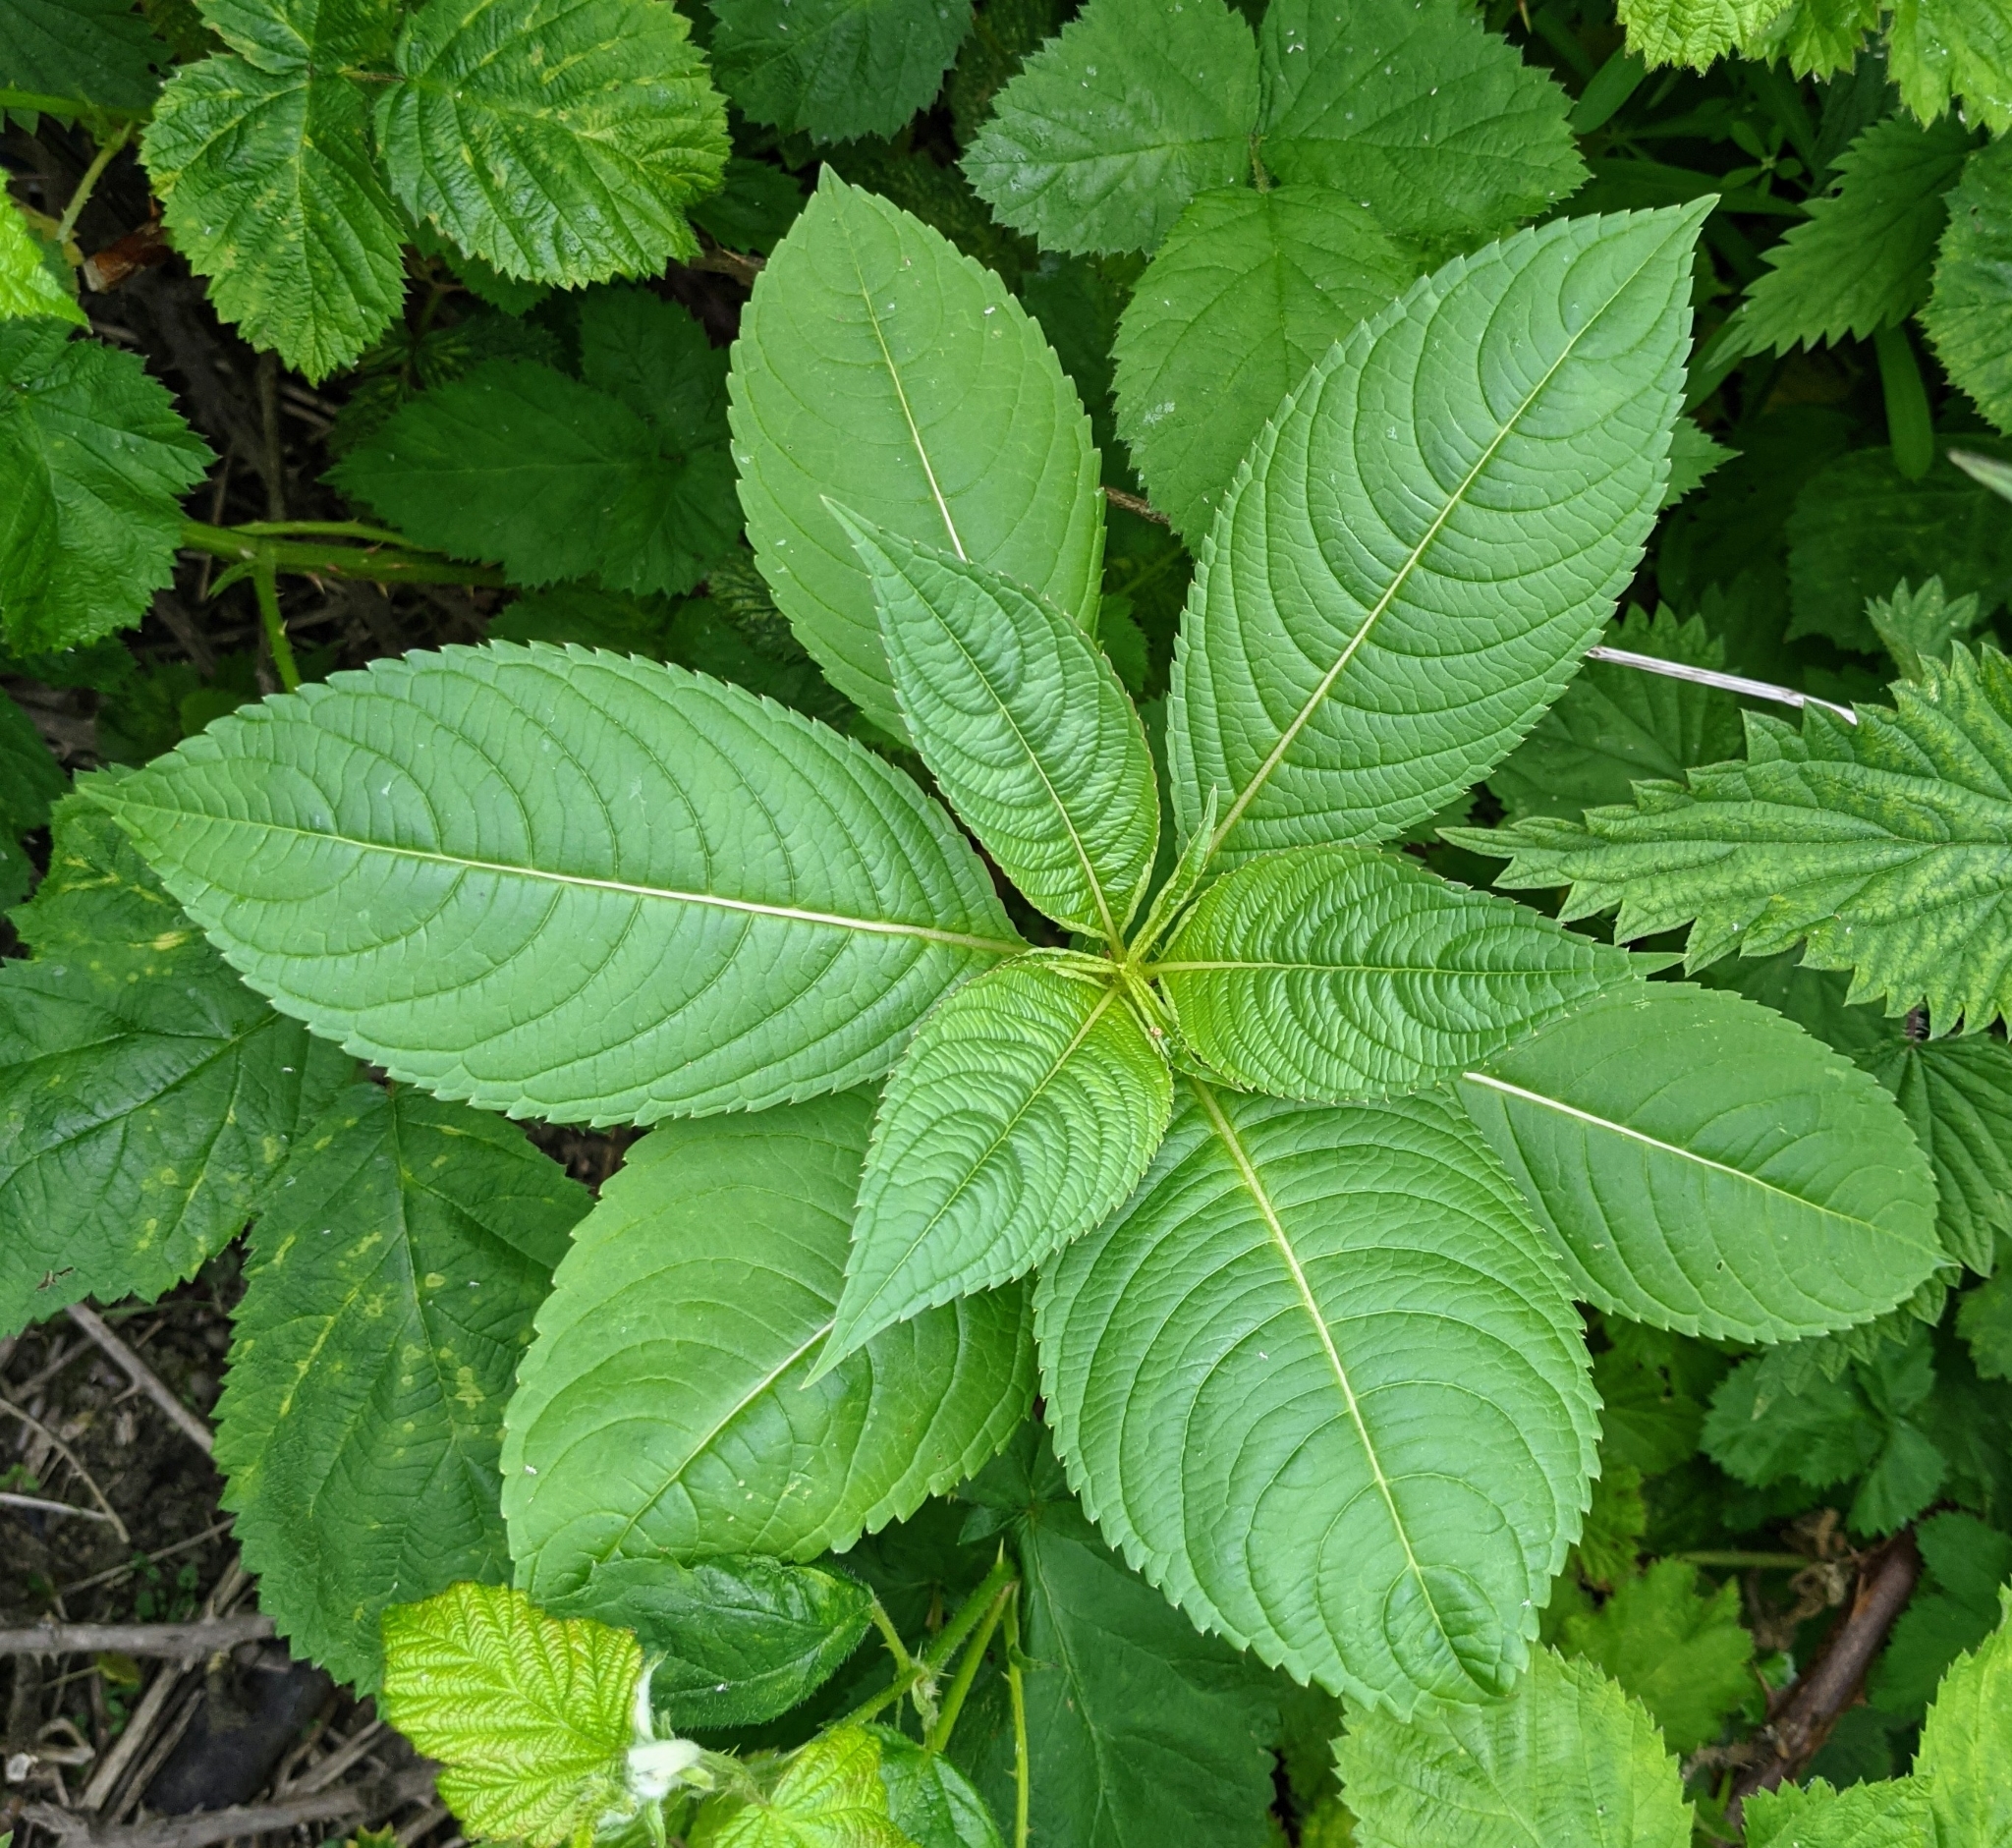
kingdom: Plantae
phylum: Tracheophyta
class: Magnoliopsida
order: Ericales
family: Balsaminaceae
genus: Impatiens
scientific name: Impatiens glandulifera
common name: Himalayan balsam
